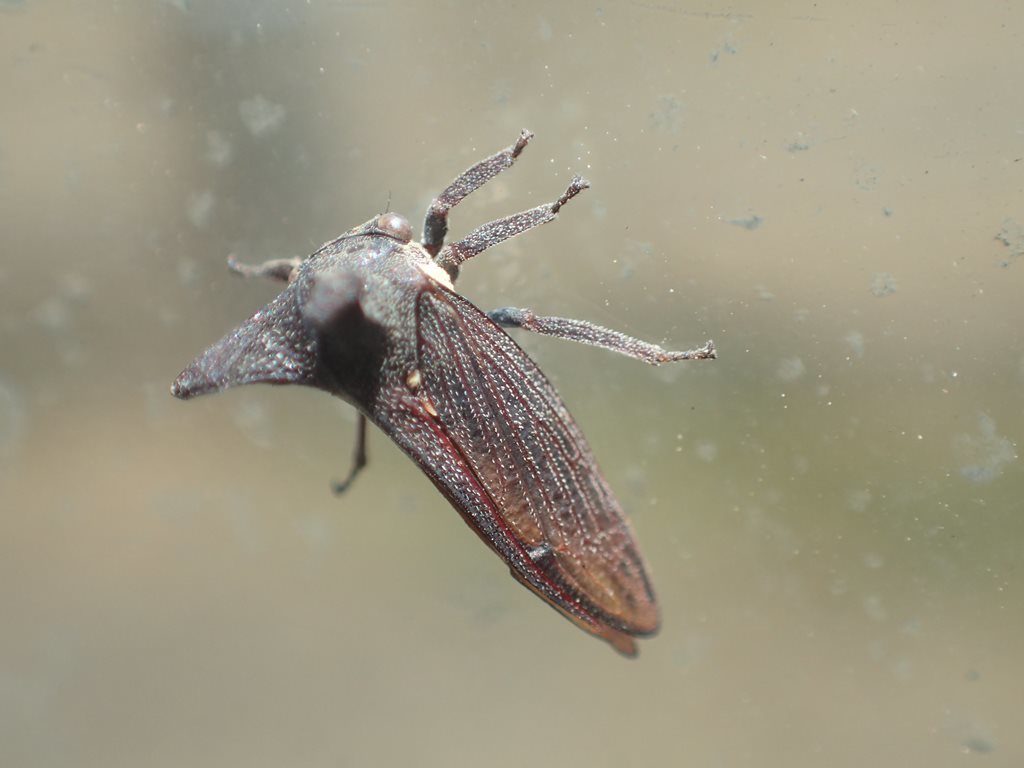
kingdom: Animalia
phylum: Arthropoda
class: Insecta
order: Hemiptera
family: Membracidae
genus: Ceraon
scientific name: Ceraon tasmaniae
